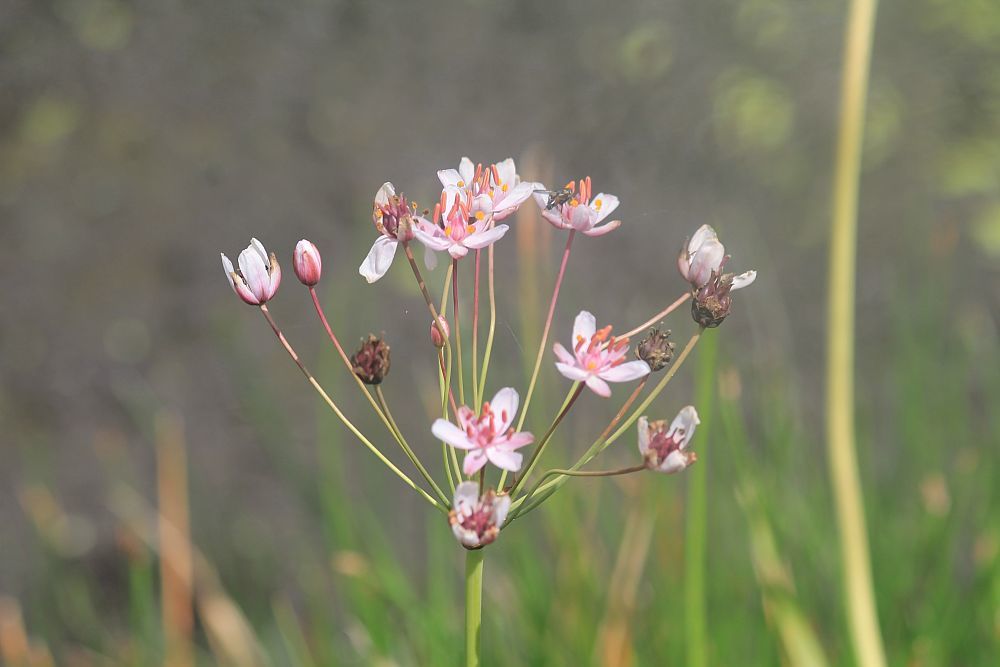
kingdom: Plantae
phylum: Tracheophyta
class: Liliopsida
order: Alismatales
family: Butomaceae
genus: Butomus
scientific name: Butomus umbellatus
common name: Flowering-rush
